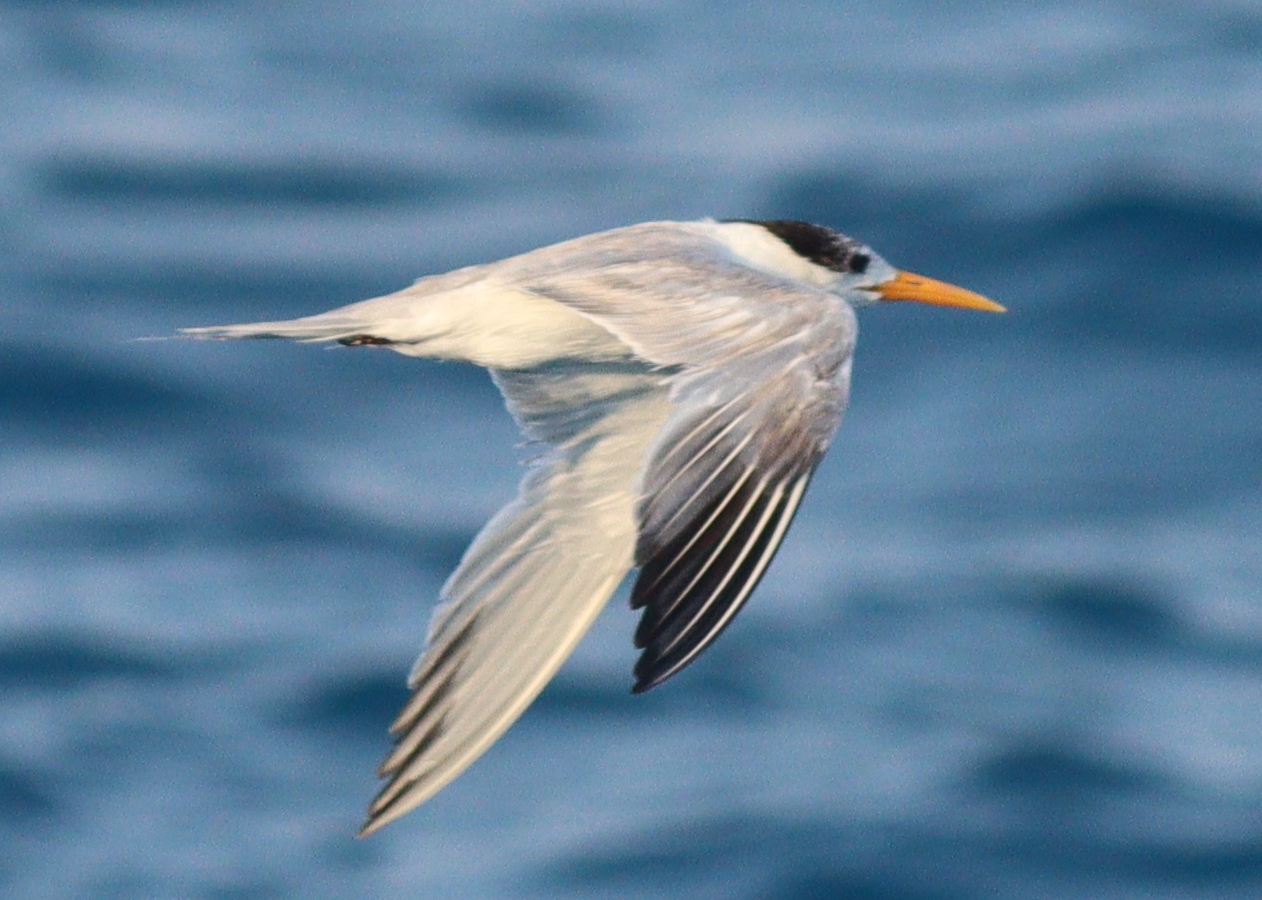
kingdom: Animalia
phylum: Chordata
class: Aves
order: Charadriiformes
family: Laridae
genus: Thalasseus
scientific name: Thalasseus bengalensis
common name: Lesser crested tern
